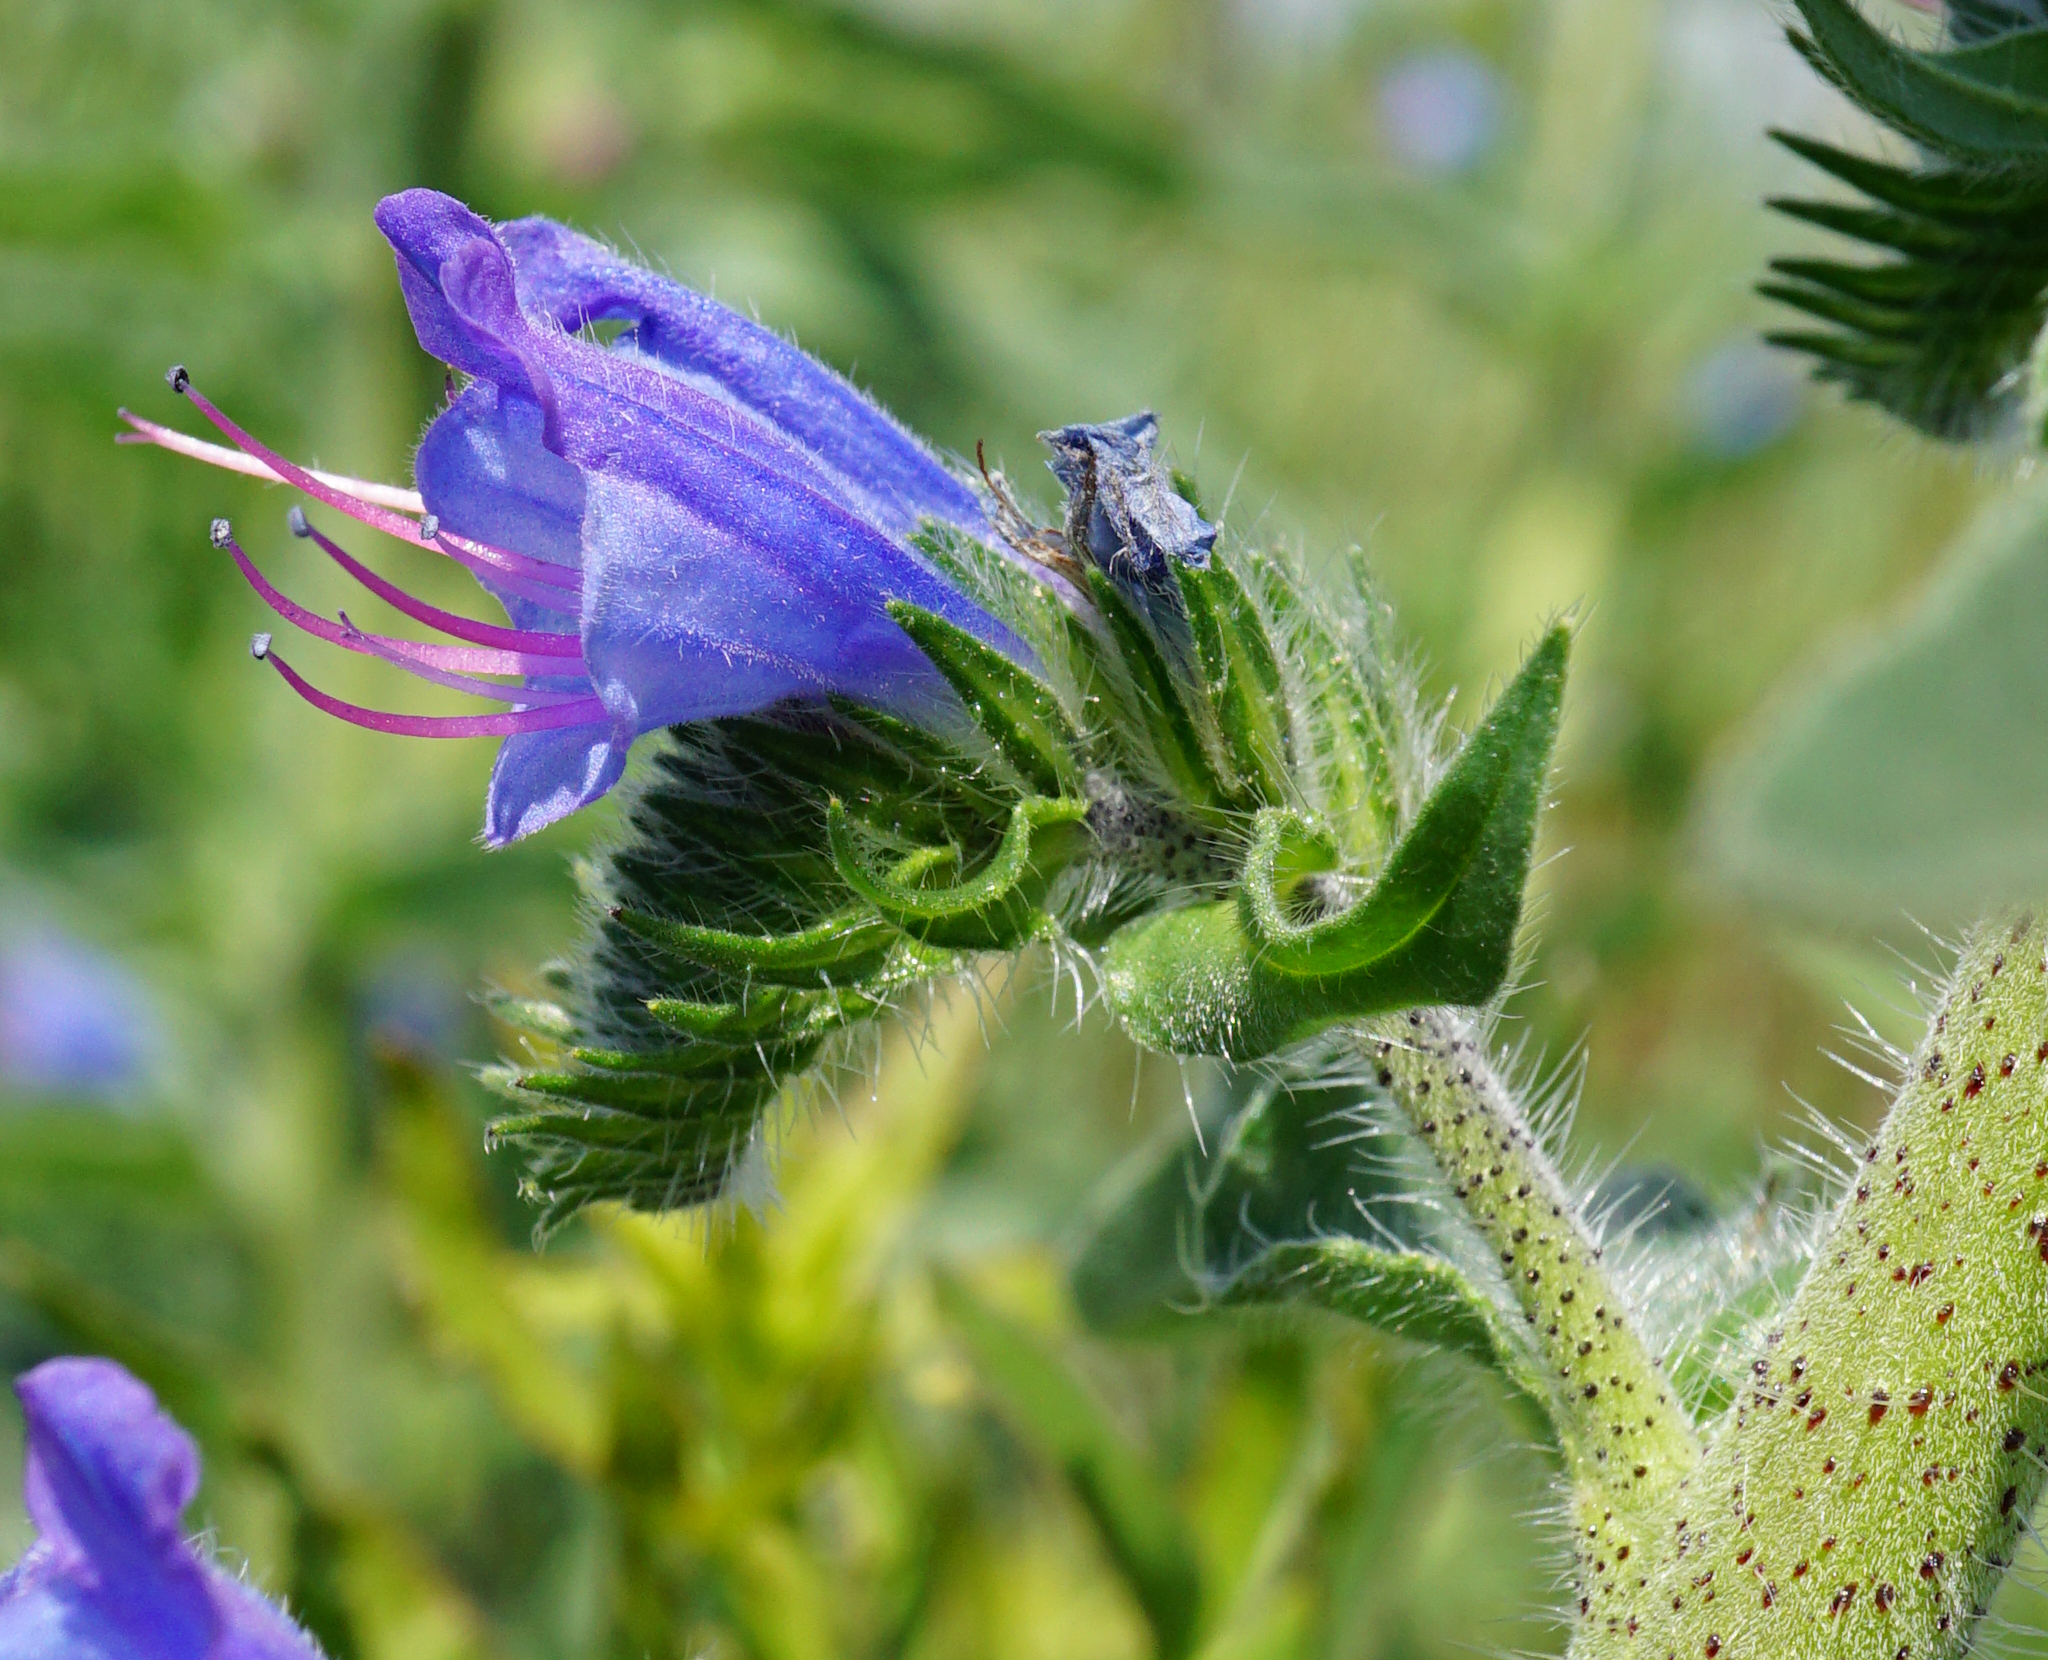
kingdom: Plantae
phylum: Tracheophyta
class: Magnoliopsida
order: Boraginales
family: Boraginaceae
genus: Echium
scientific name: Echium vulgare
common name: Common viper's bugloss
